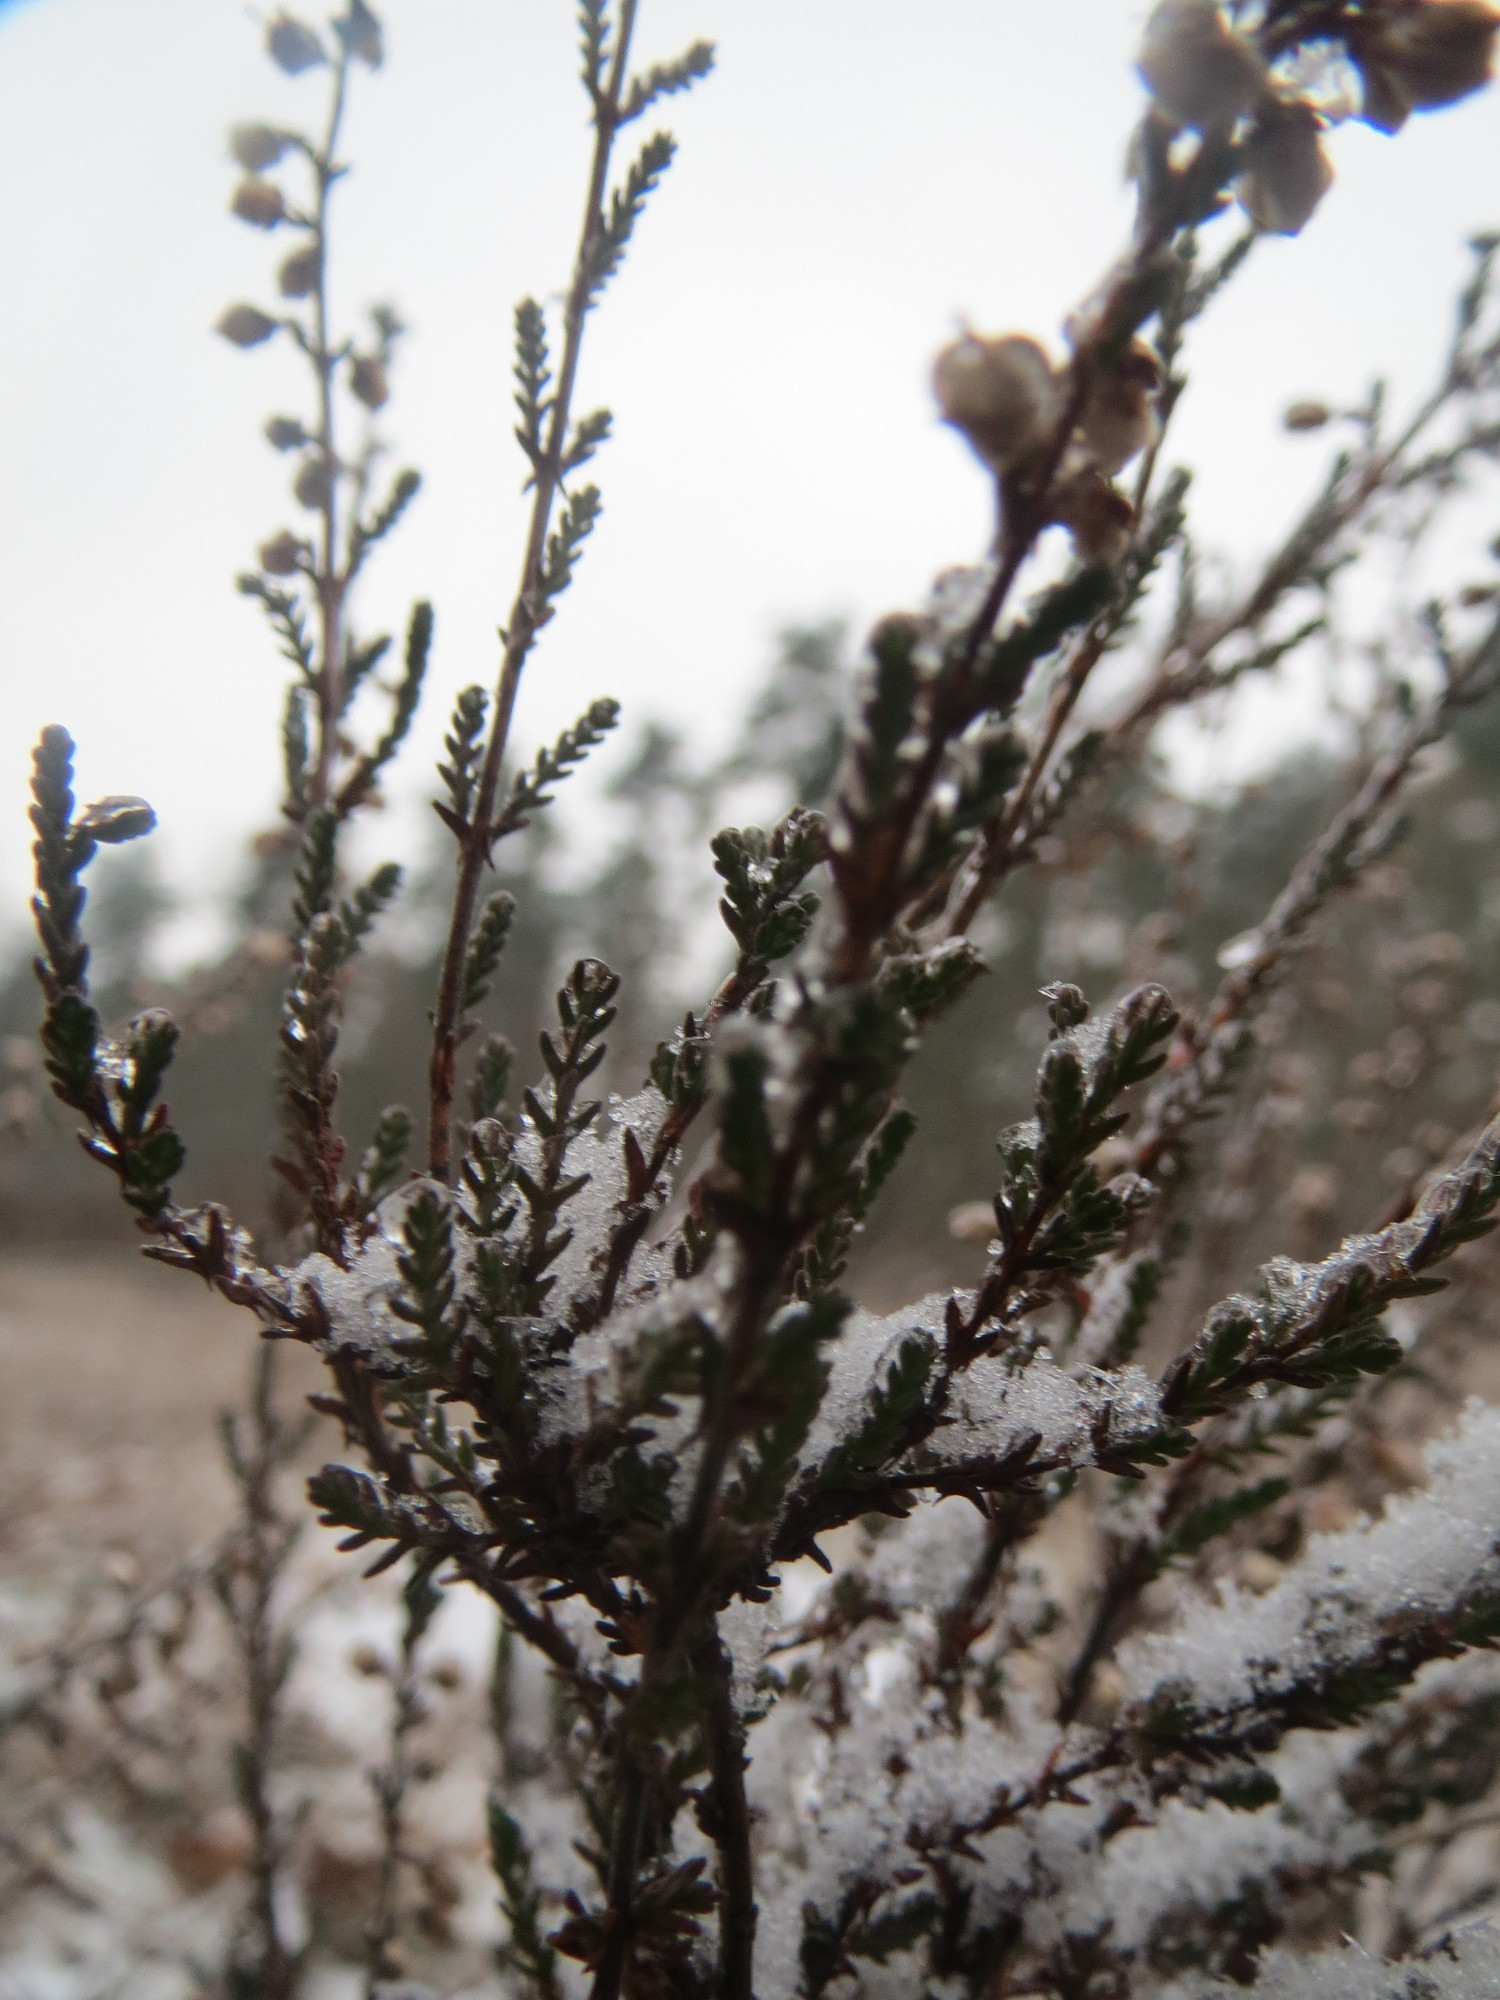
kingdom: Plantae
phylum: Tracheophyta
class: Magnoliopsida
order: Ericales
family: Ericaceae
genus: Calluna
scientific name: Calluna vulgaris
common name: Heather
